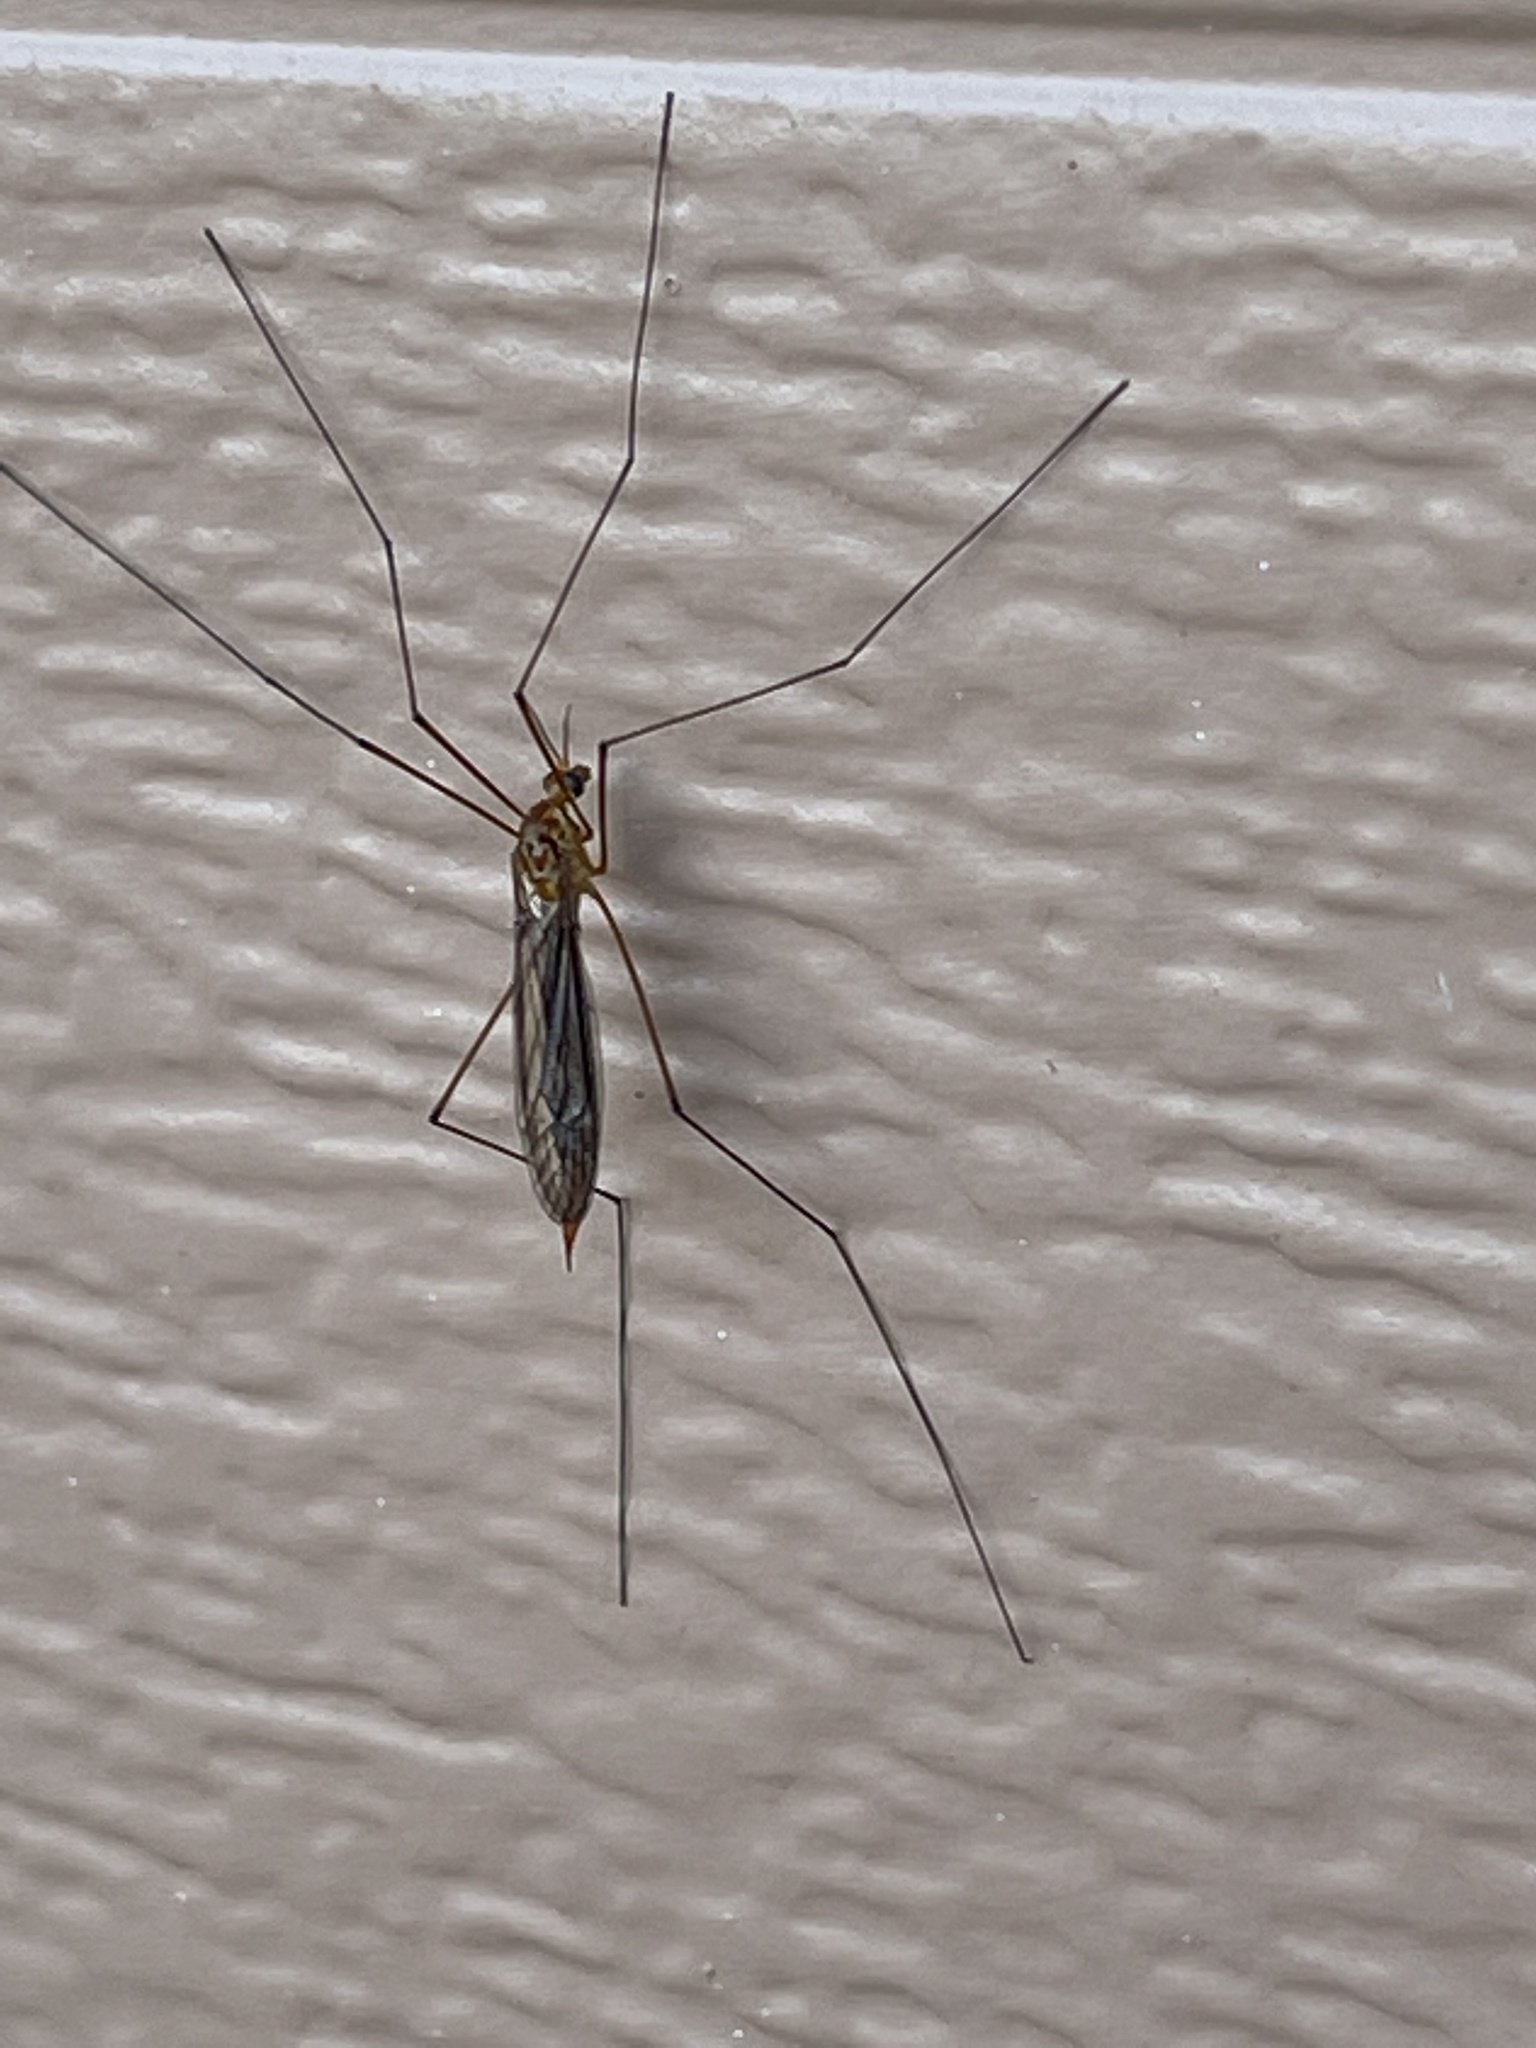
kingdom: Animalia
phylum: Arthropoda
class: Insecta
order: Diptera
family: Tipulidae
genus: Nephrotoma
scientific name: Nephrotoma ferruginea
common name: Ferruginous tiger crane fly
